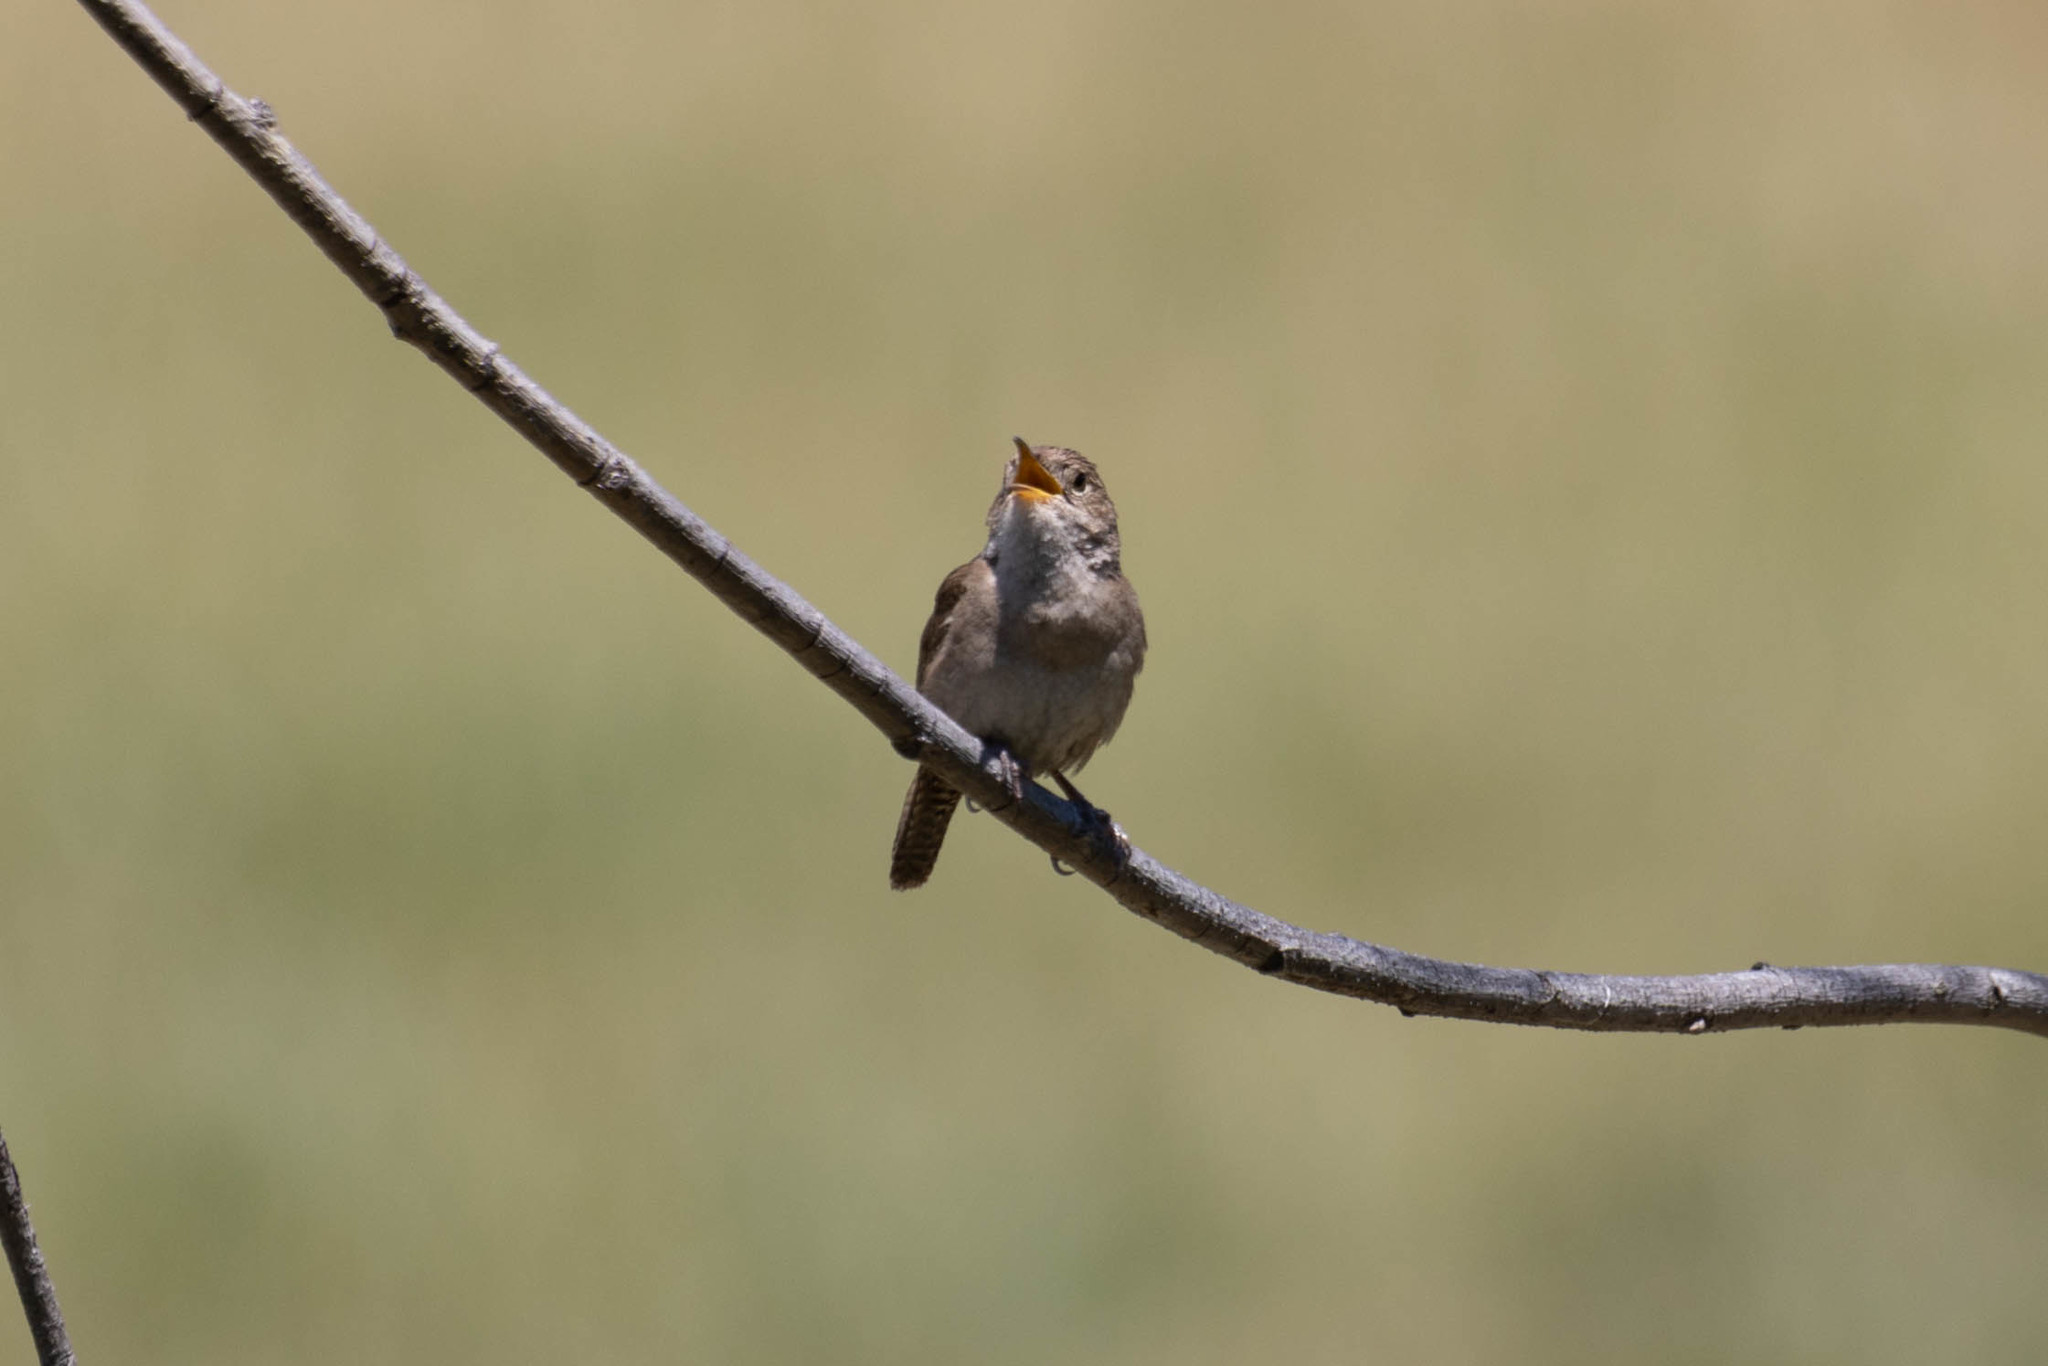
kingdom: Animalia
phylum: Chordata
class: Aves
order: Passeriformes
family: Troglodytidae
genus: Troglodytes
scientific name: Troglodytes aedon
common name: House wren
